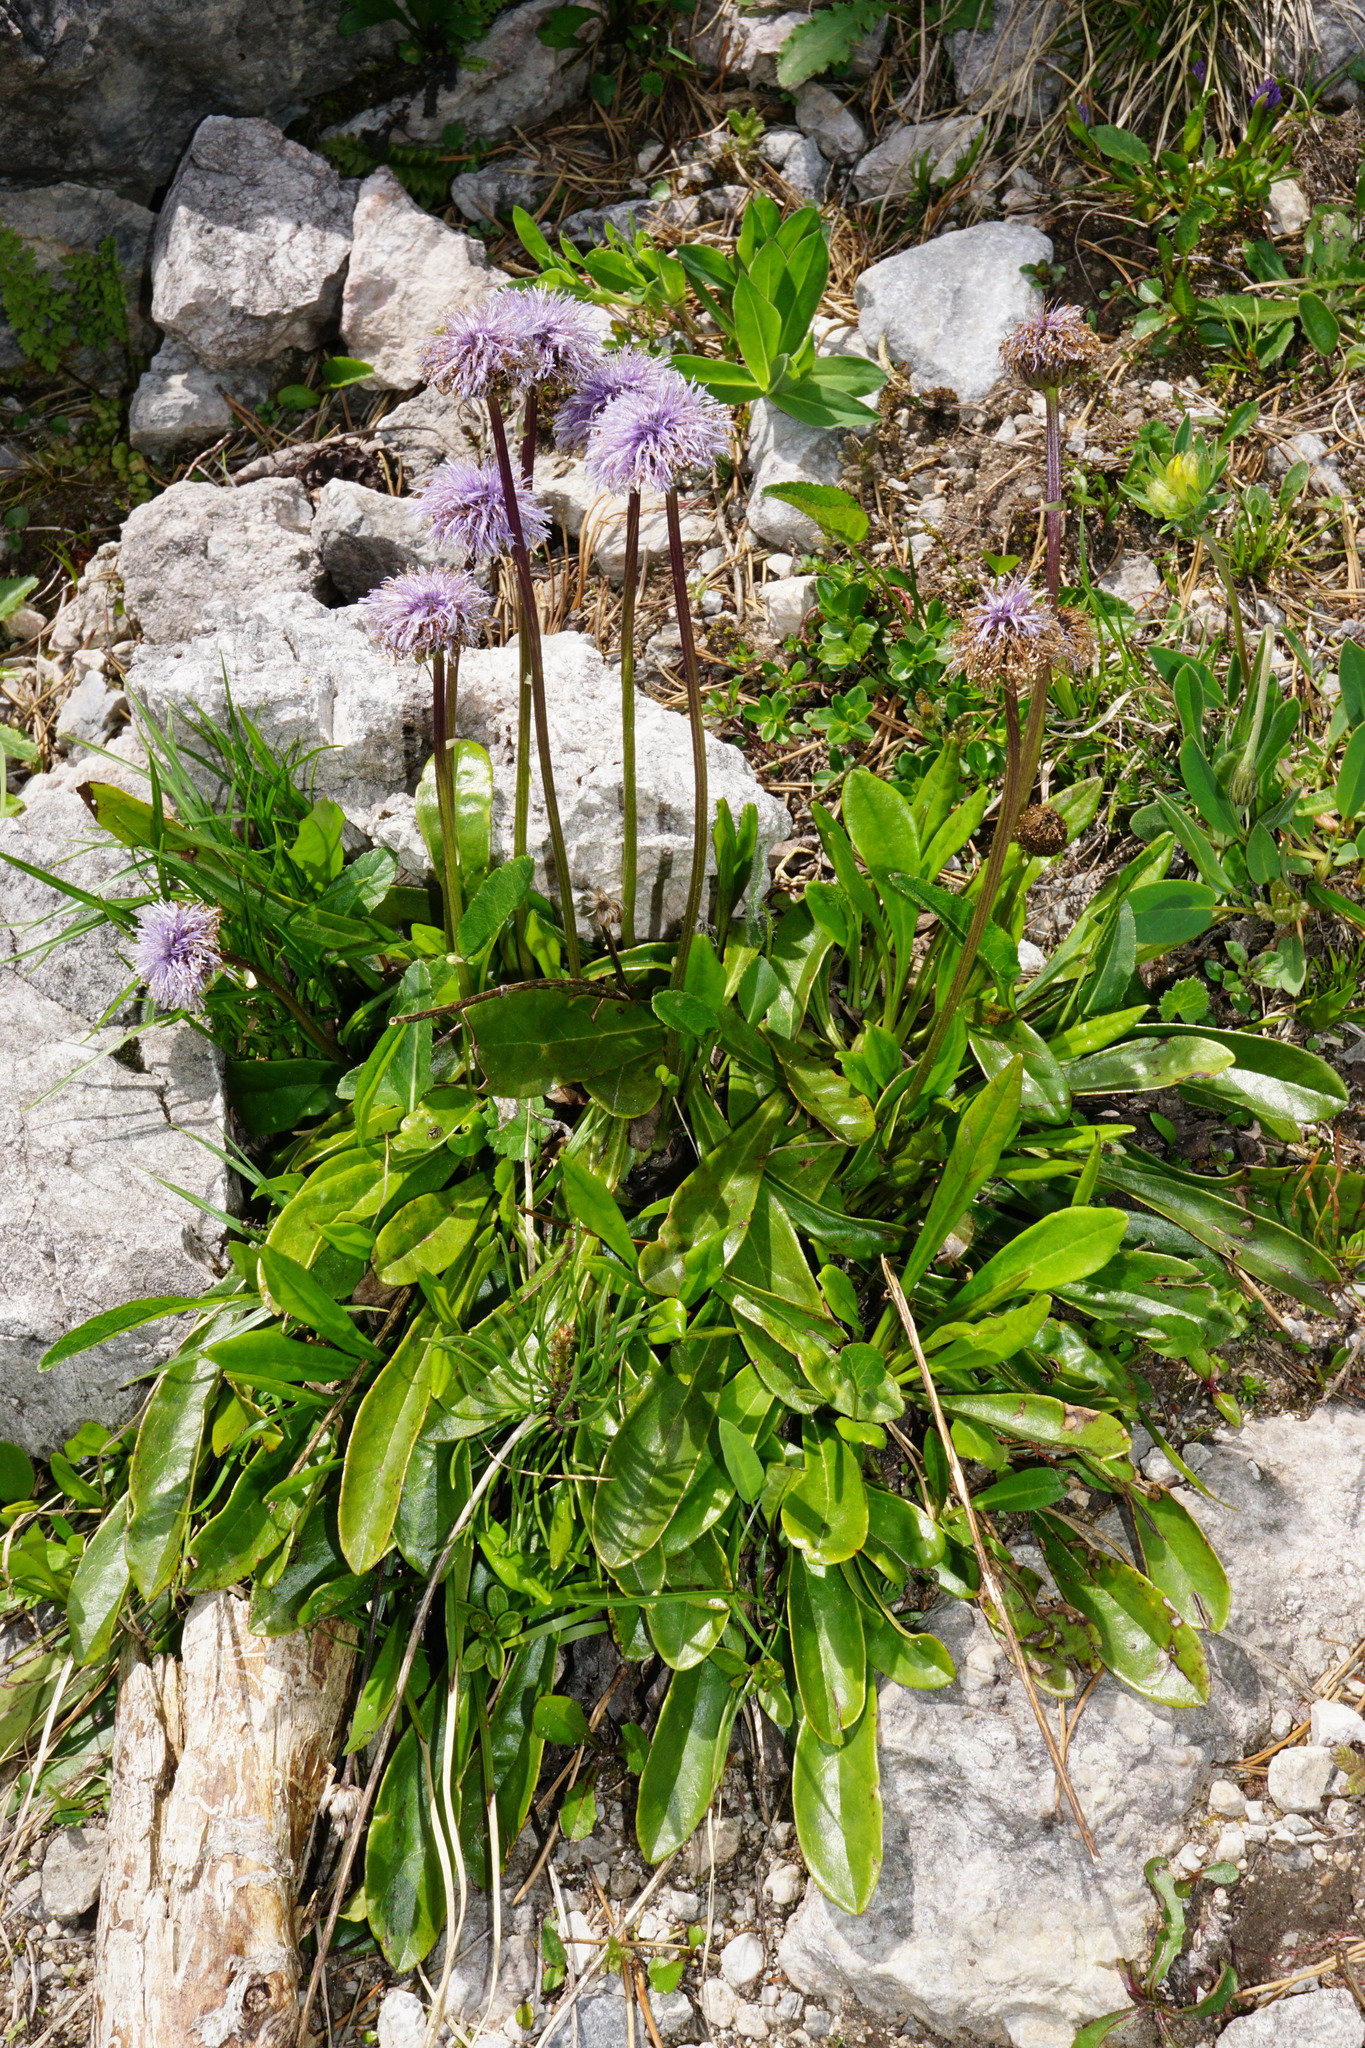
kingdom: Plantae
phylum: Tracheophyta
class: Magnoliopsida
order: Lamiales
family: Plantaginaceae
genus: Globularia
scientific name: Globularia nudicaulis
